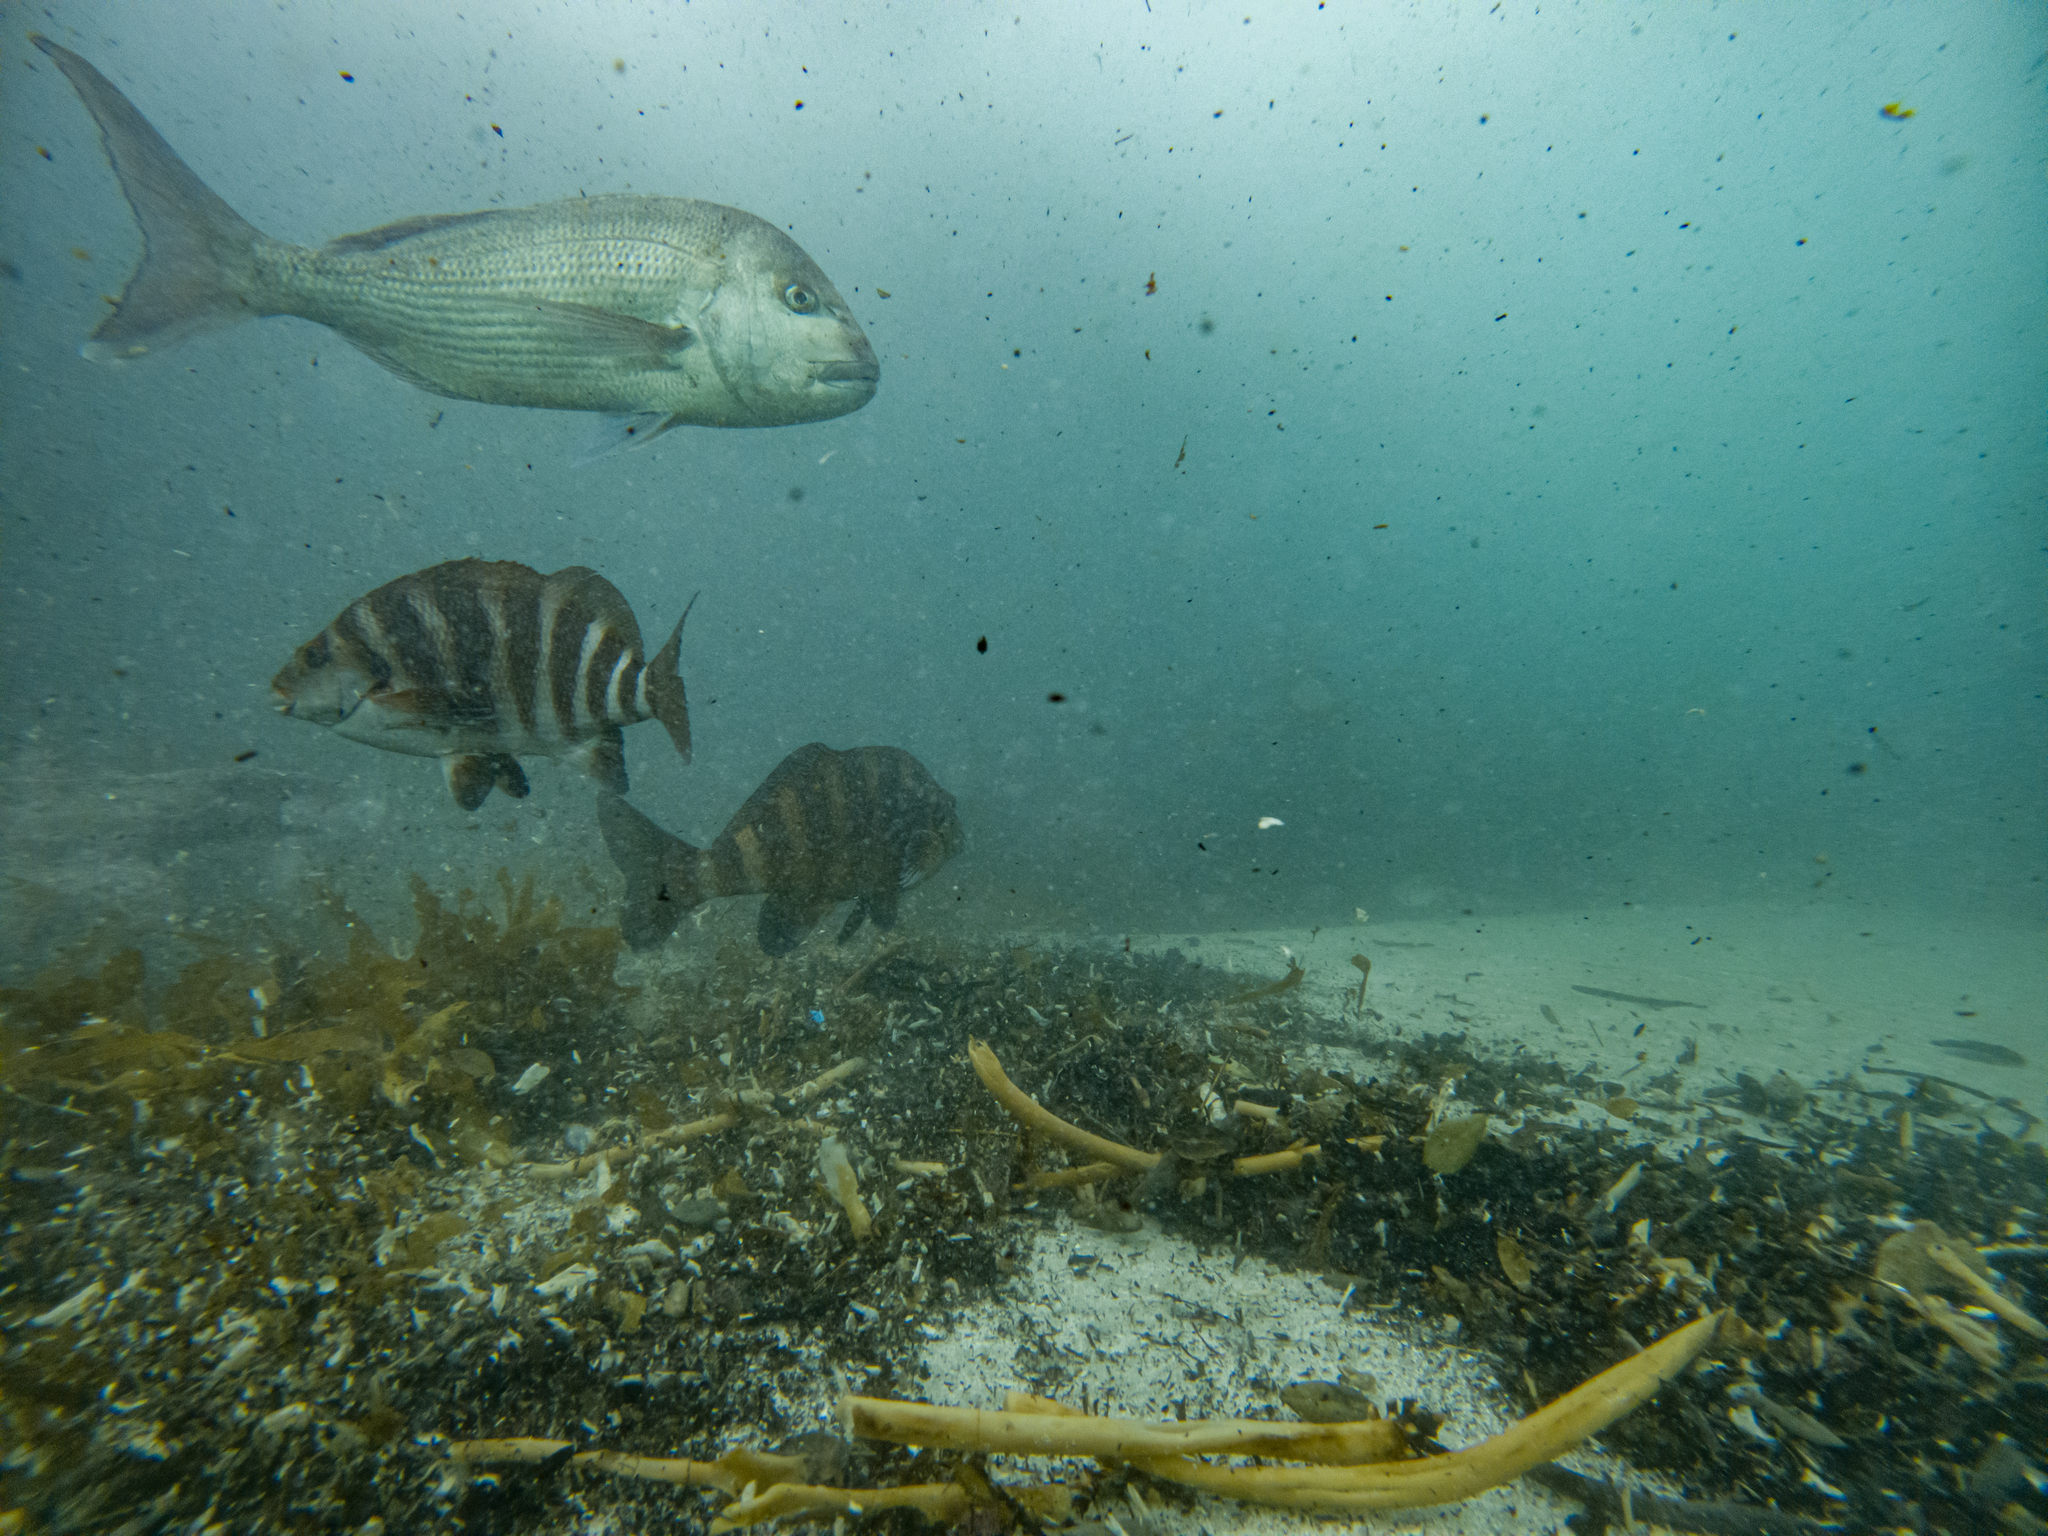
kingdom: Animalia
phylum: Chordata
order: Perciformes
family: Sparidae
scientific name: Sparidae
